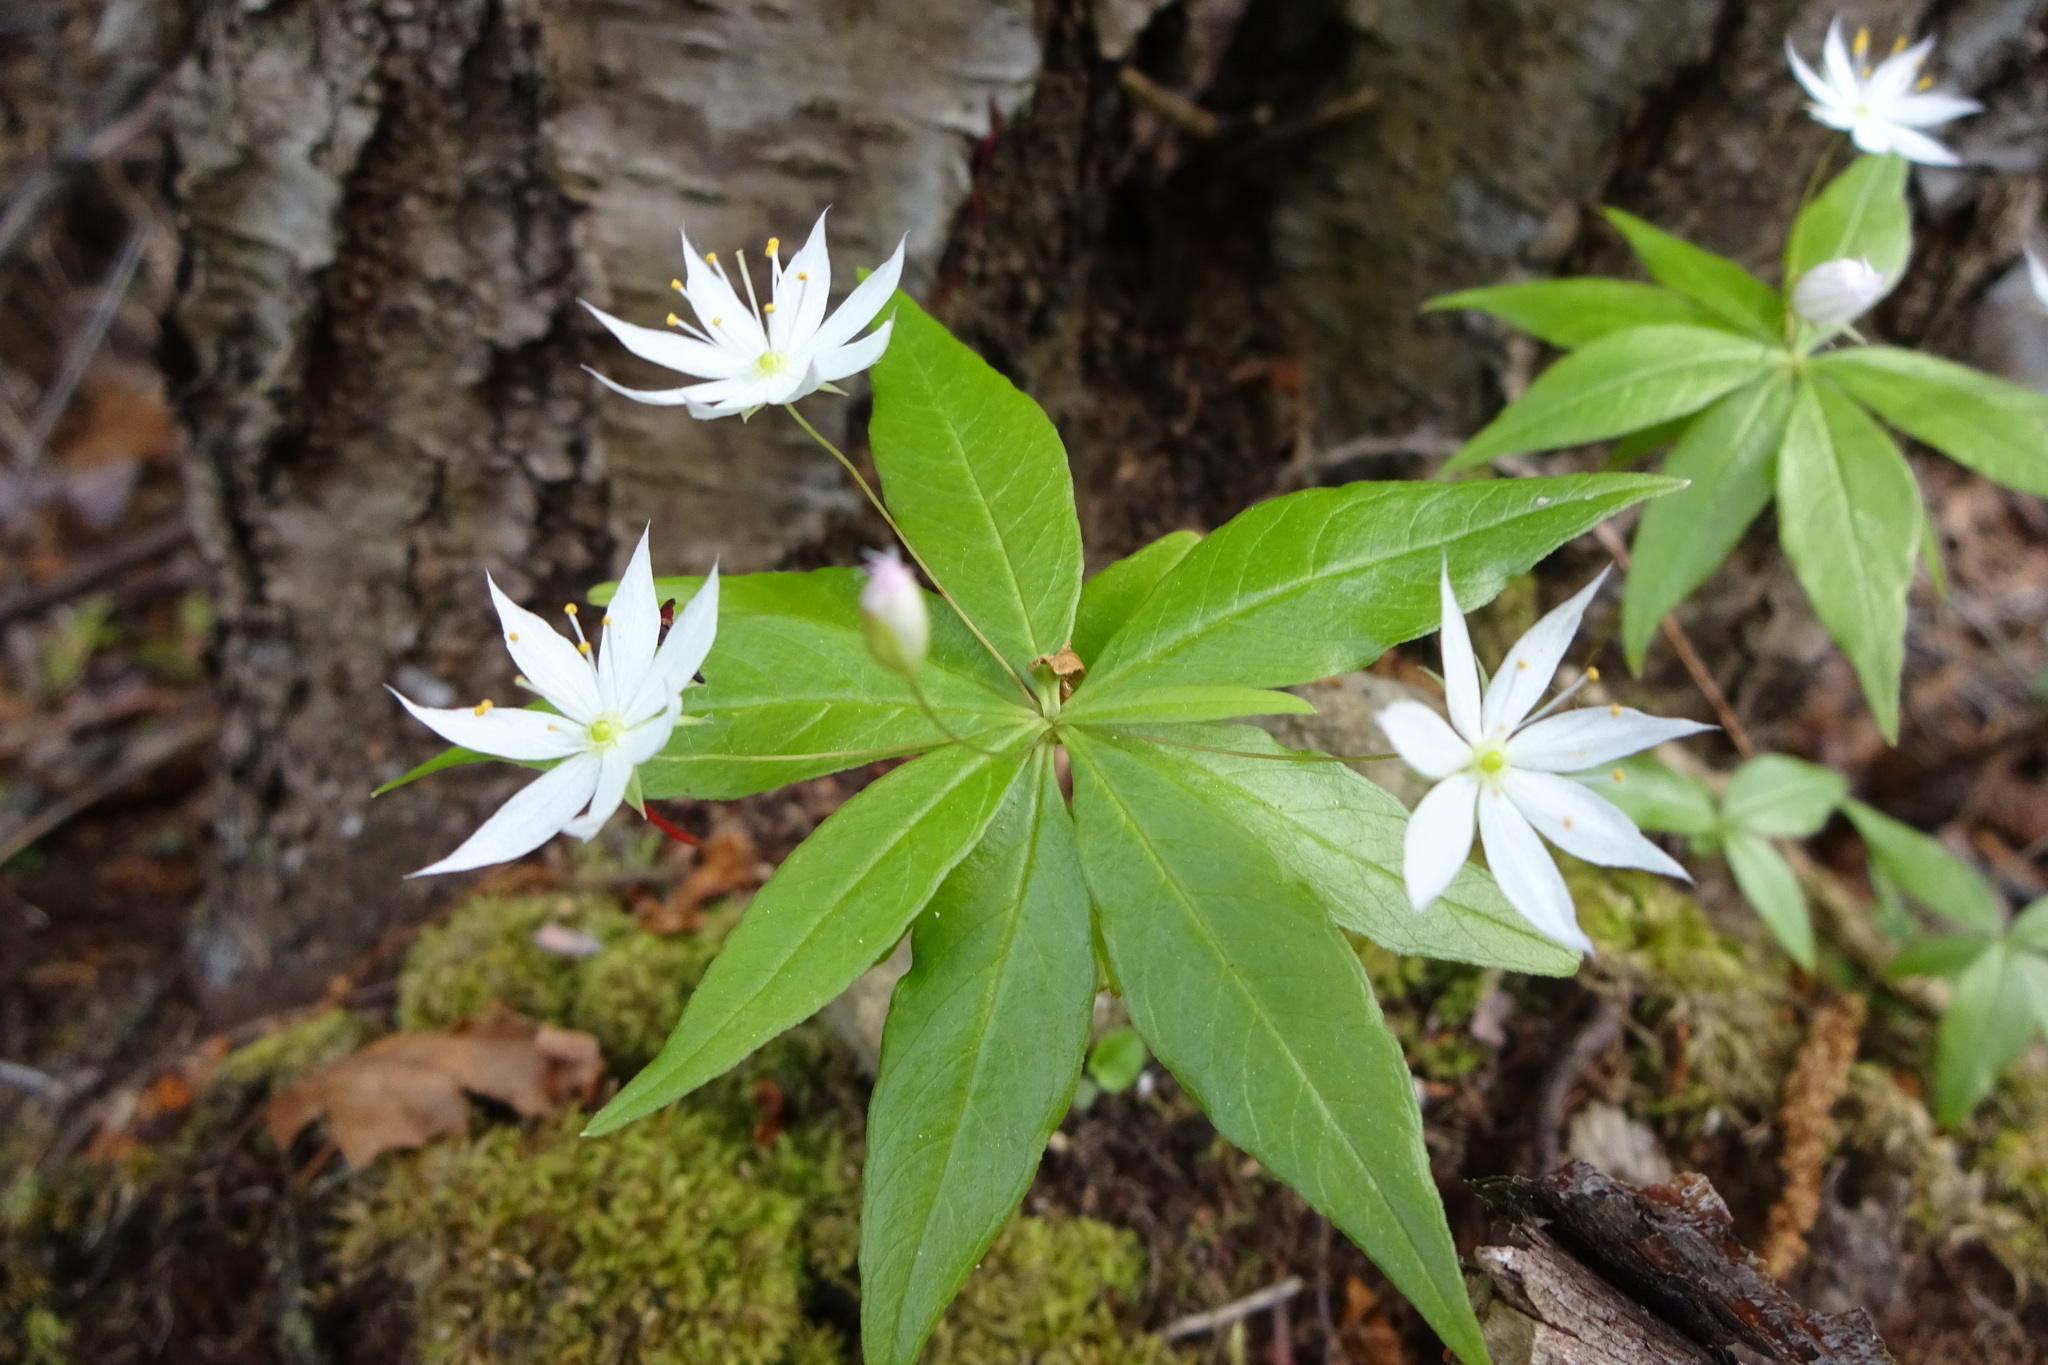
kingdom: Plantae
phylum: Tracheophyta
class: Magnoliopsida
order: Ericales
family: Primulaceae
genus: Lysimachia
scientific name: Lysimachia borealis
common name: American starflower
